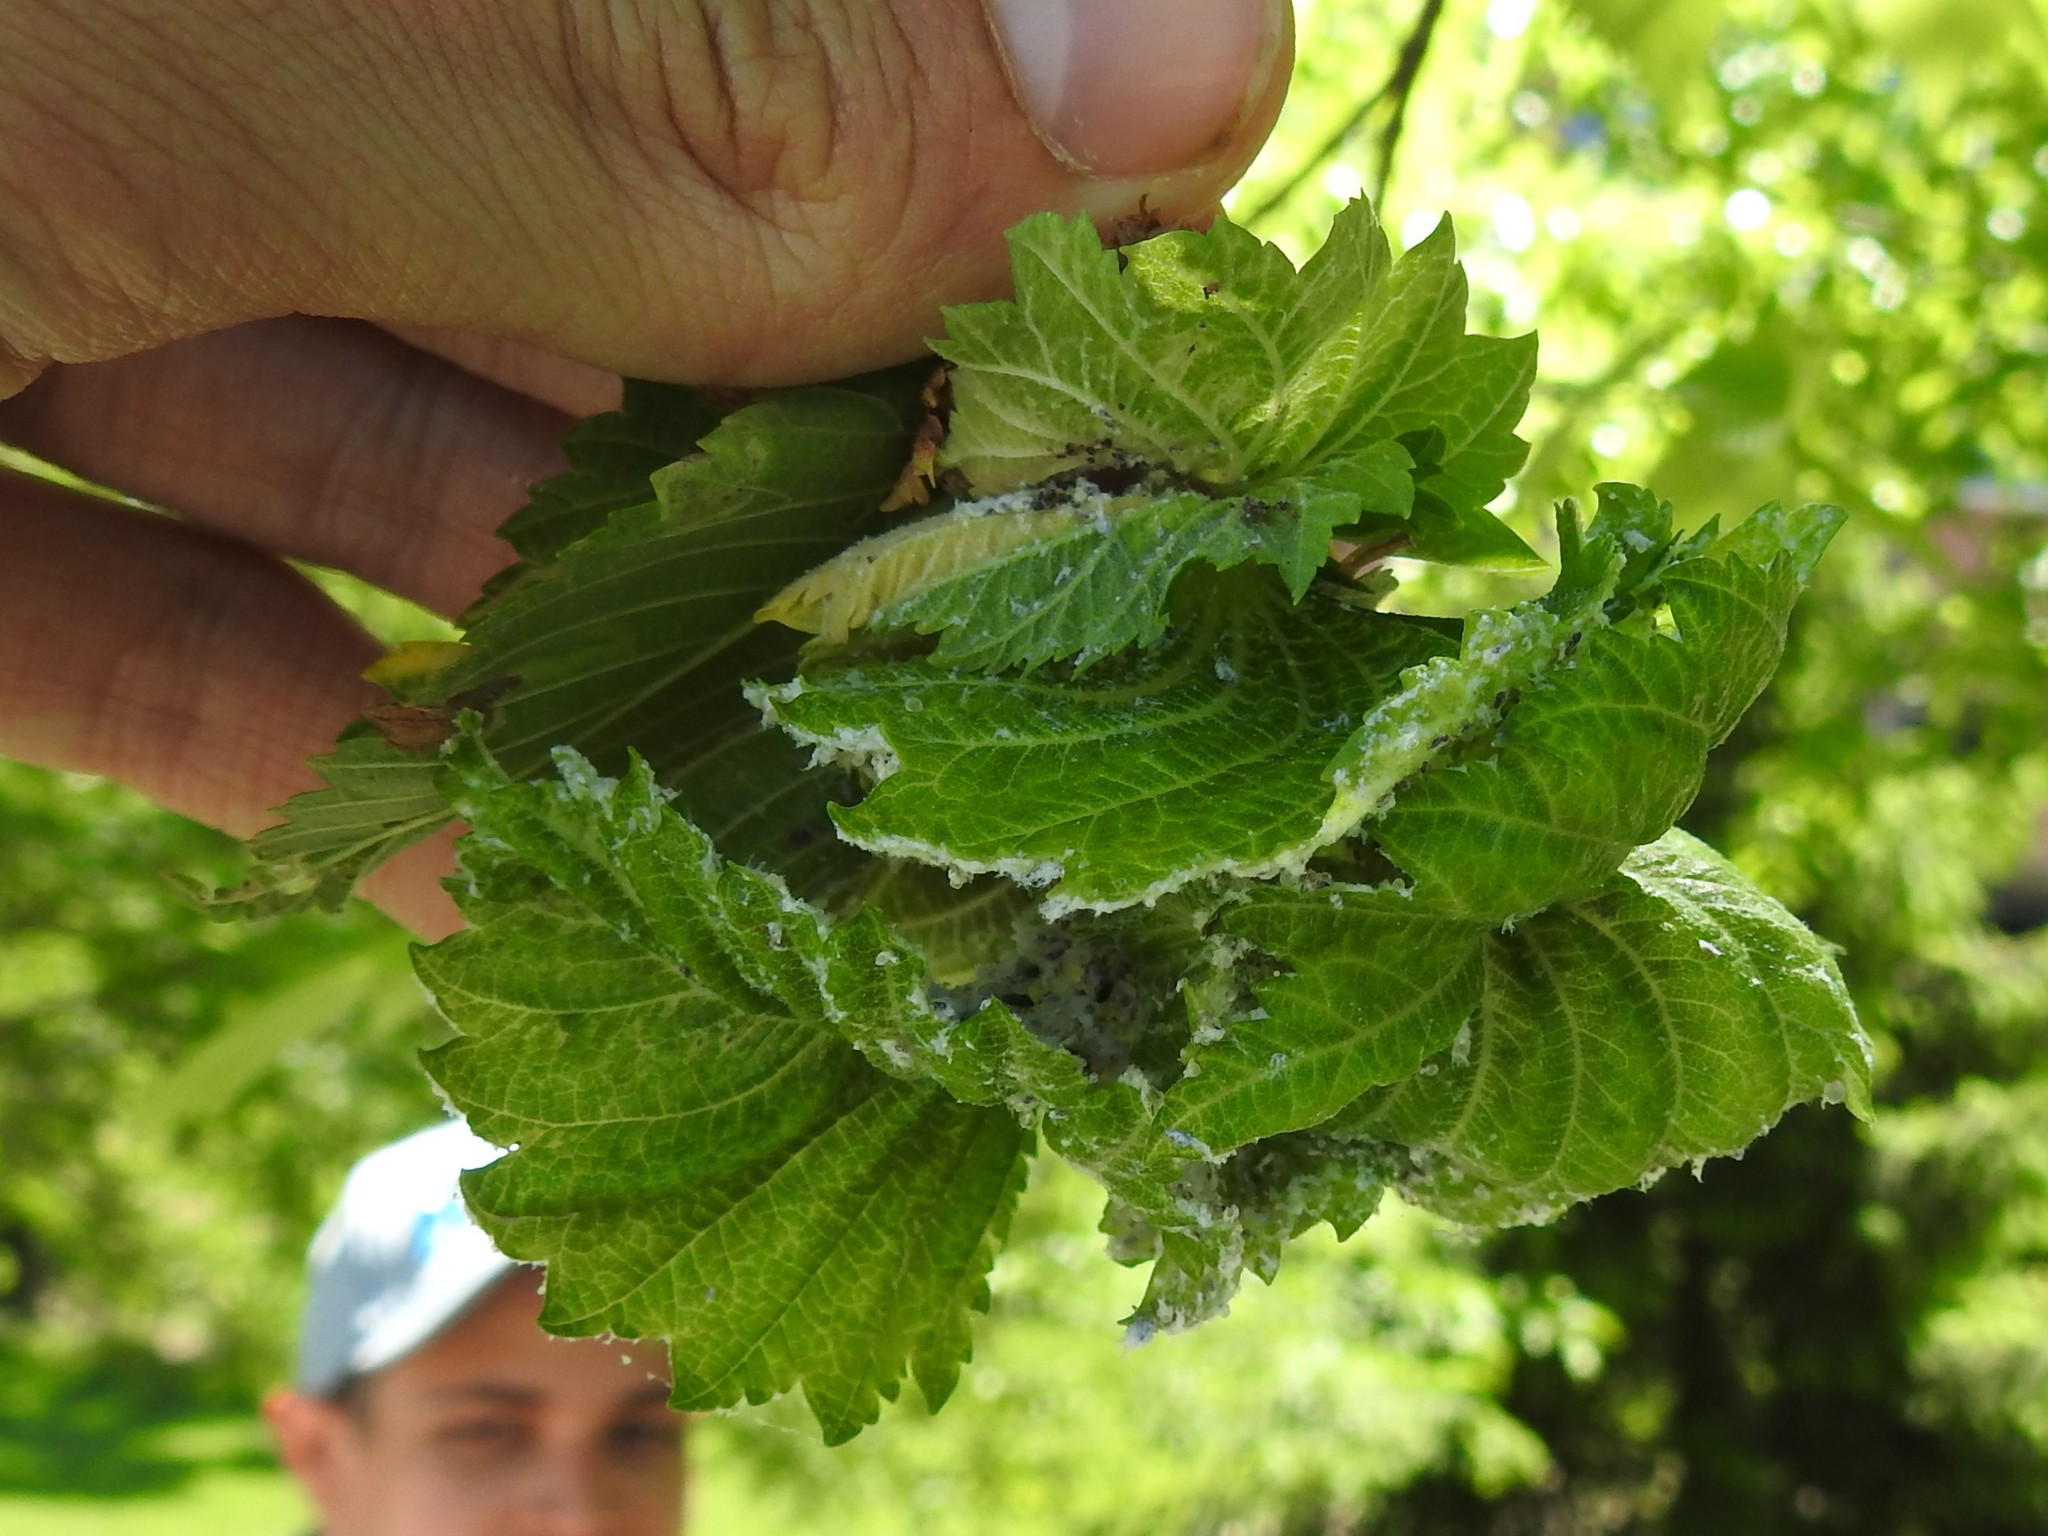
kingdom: Animalia
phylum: Arthropoda
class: Insecta
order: Hemiptera
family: Aphididae
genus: Eriosoma
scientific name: Eriosoma americanum
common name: Woolly elm aphid
